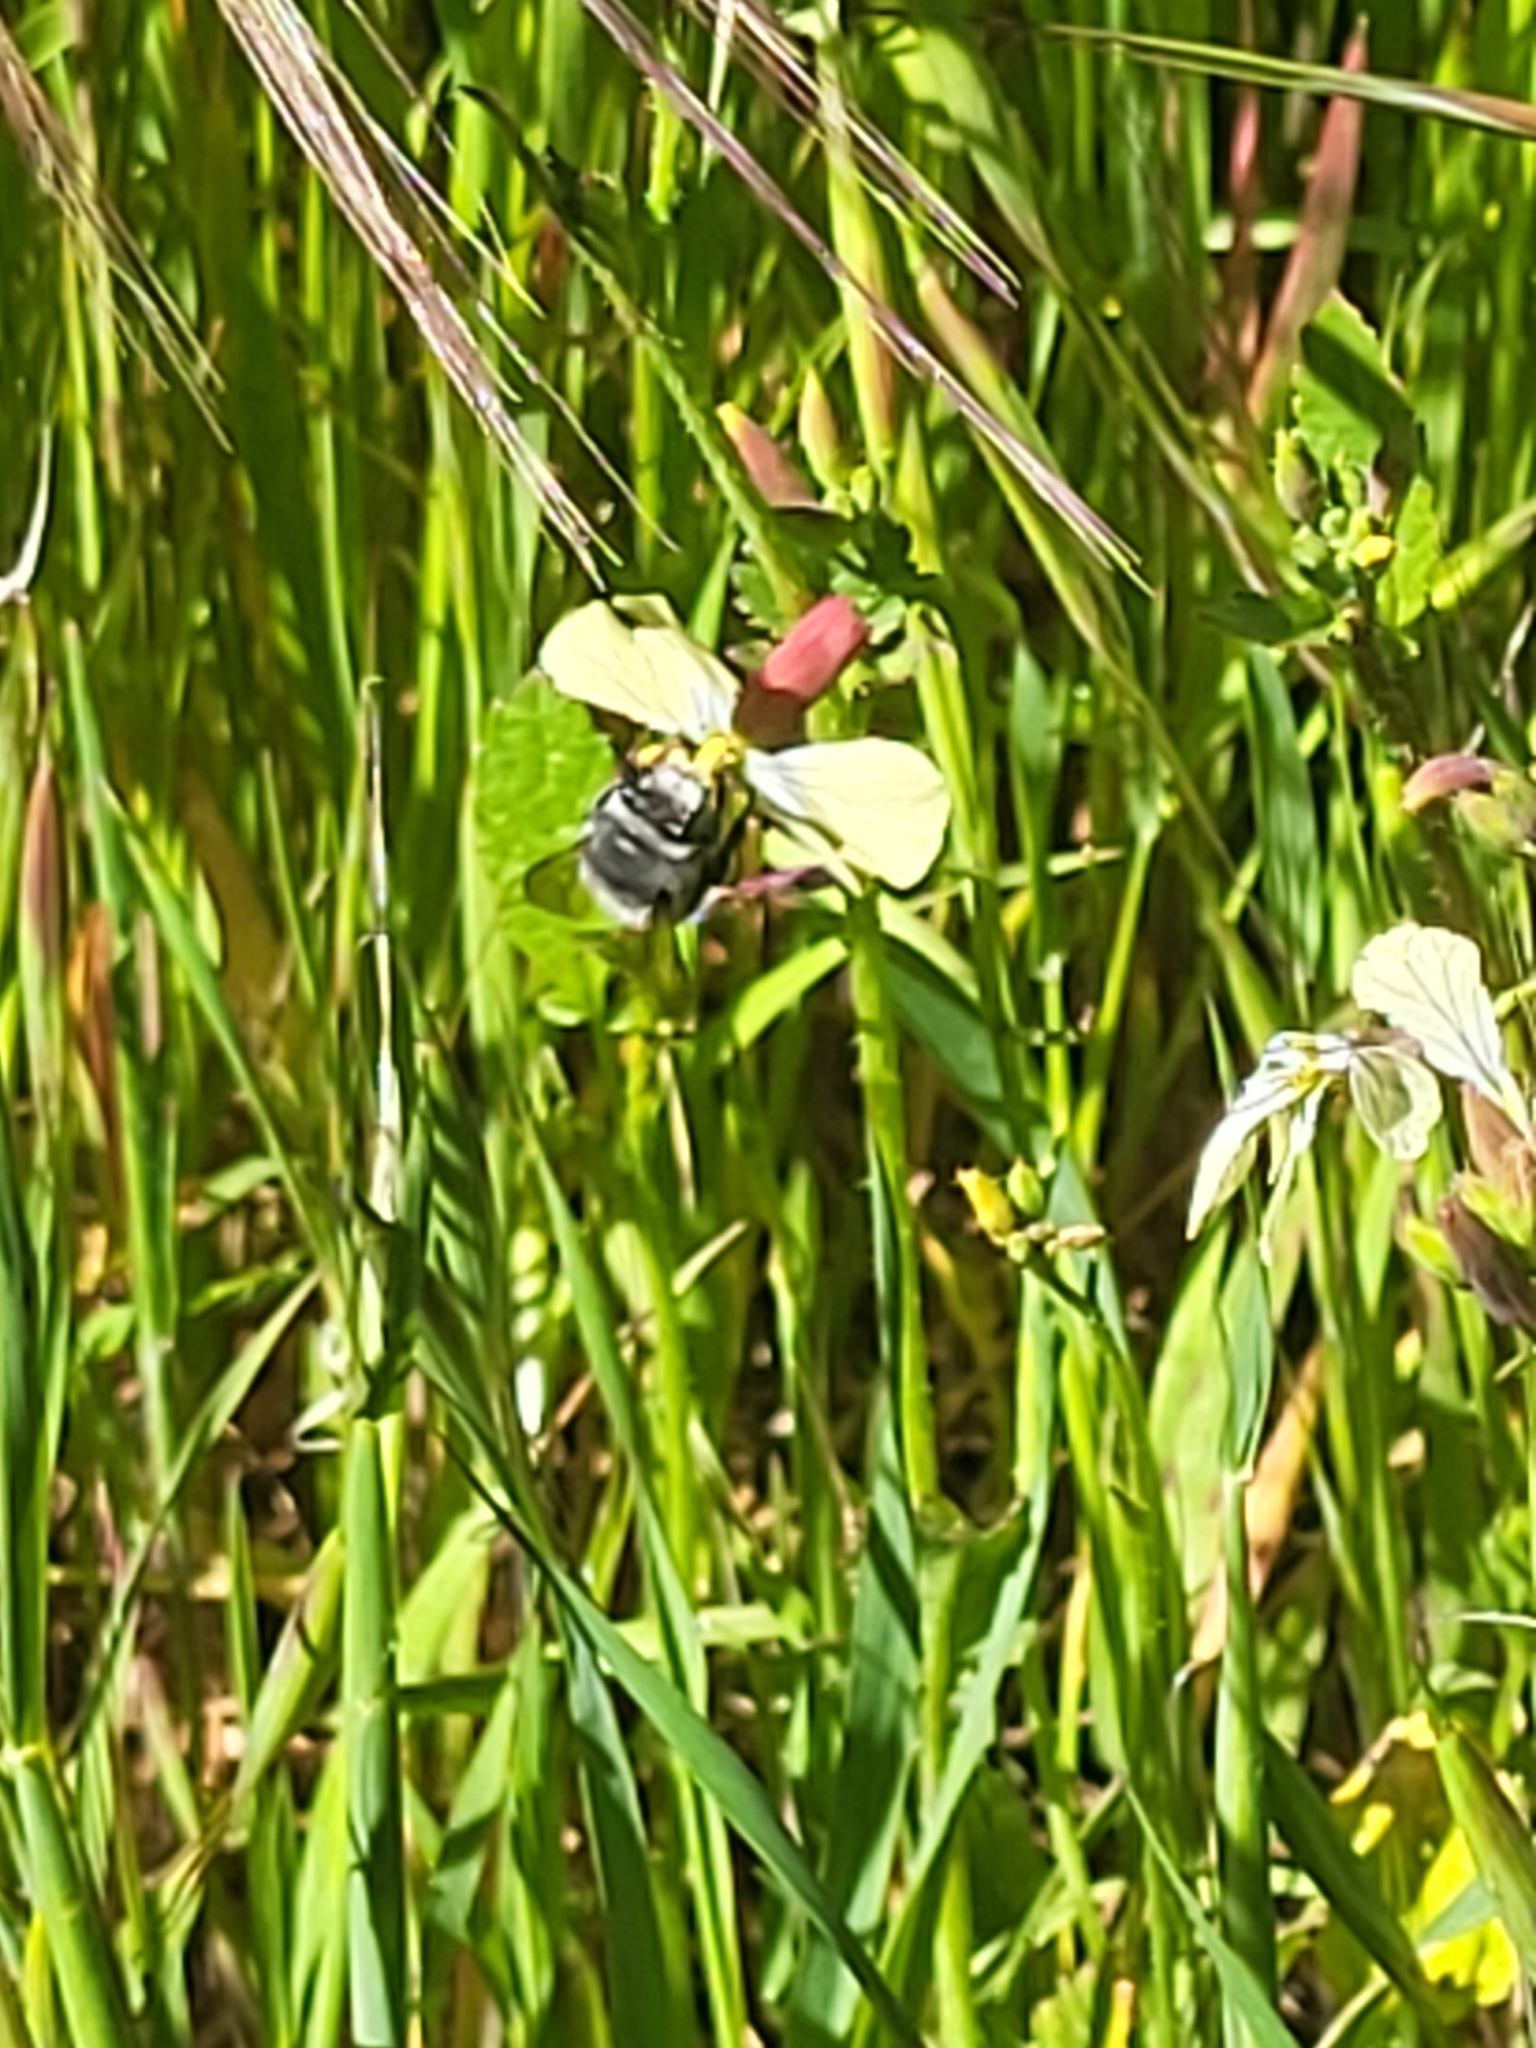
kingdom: Animalia
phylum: Arthropoda
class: Insecta
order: Hymenoptera
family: Apidae
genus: Anthophora
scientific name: Anthophora alluaudi
